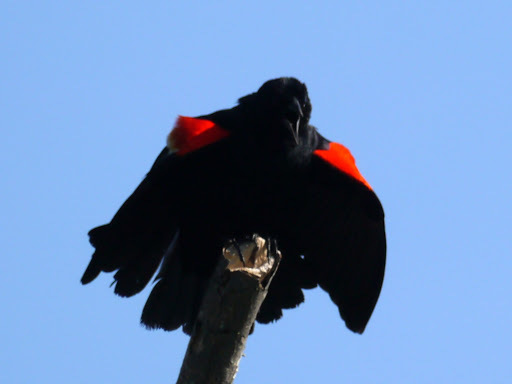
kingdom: Animalia
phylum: Chordata
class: Aves
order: Passeriformes
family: Icteridae
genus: Agelaius
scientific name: Agelaius phoeniceus
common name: Red-winged blackbird
